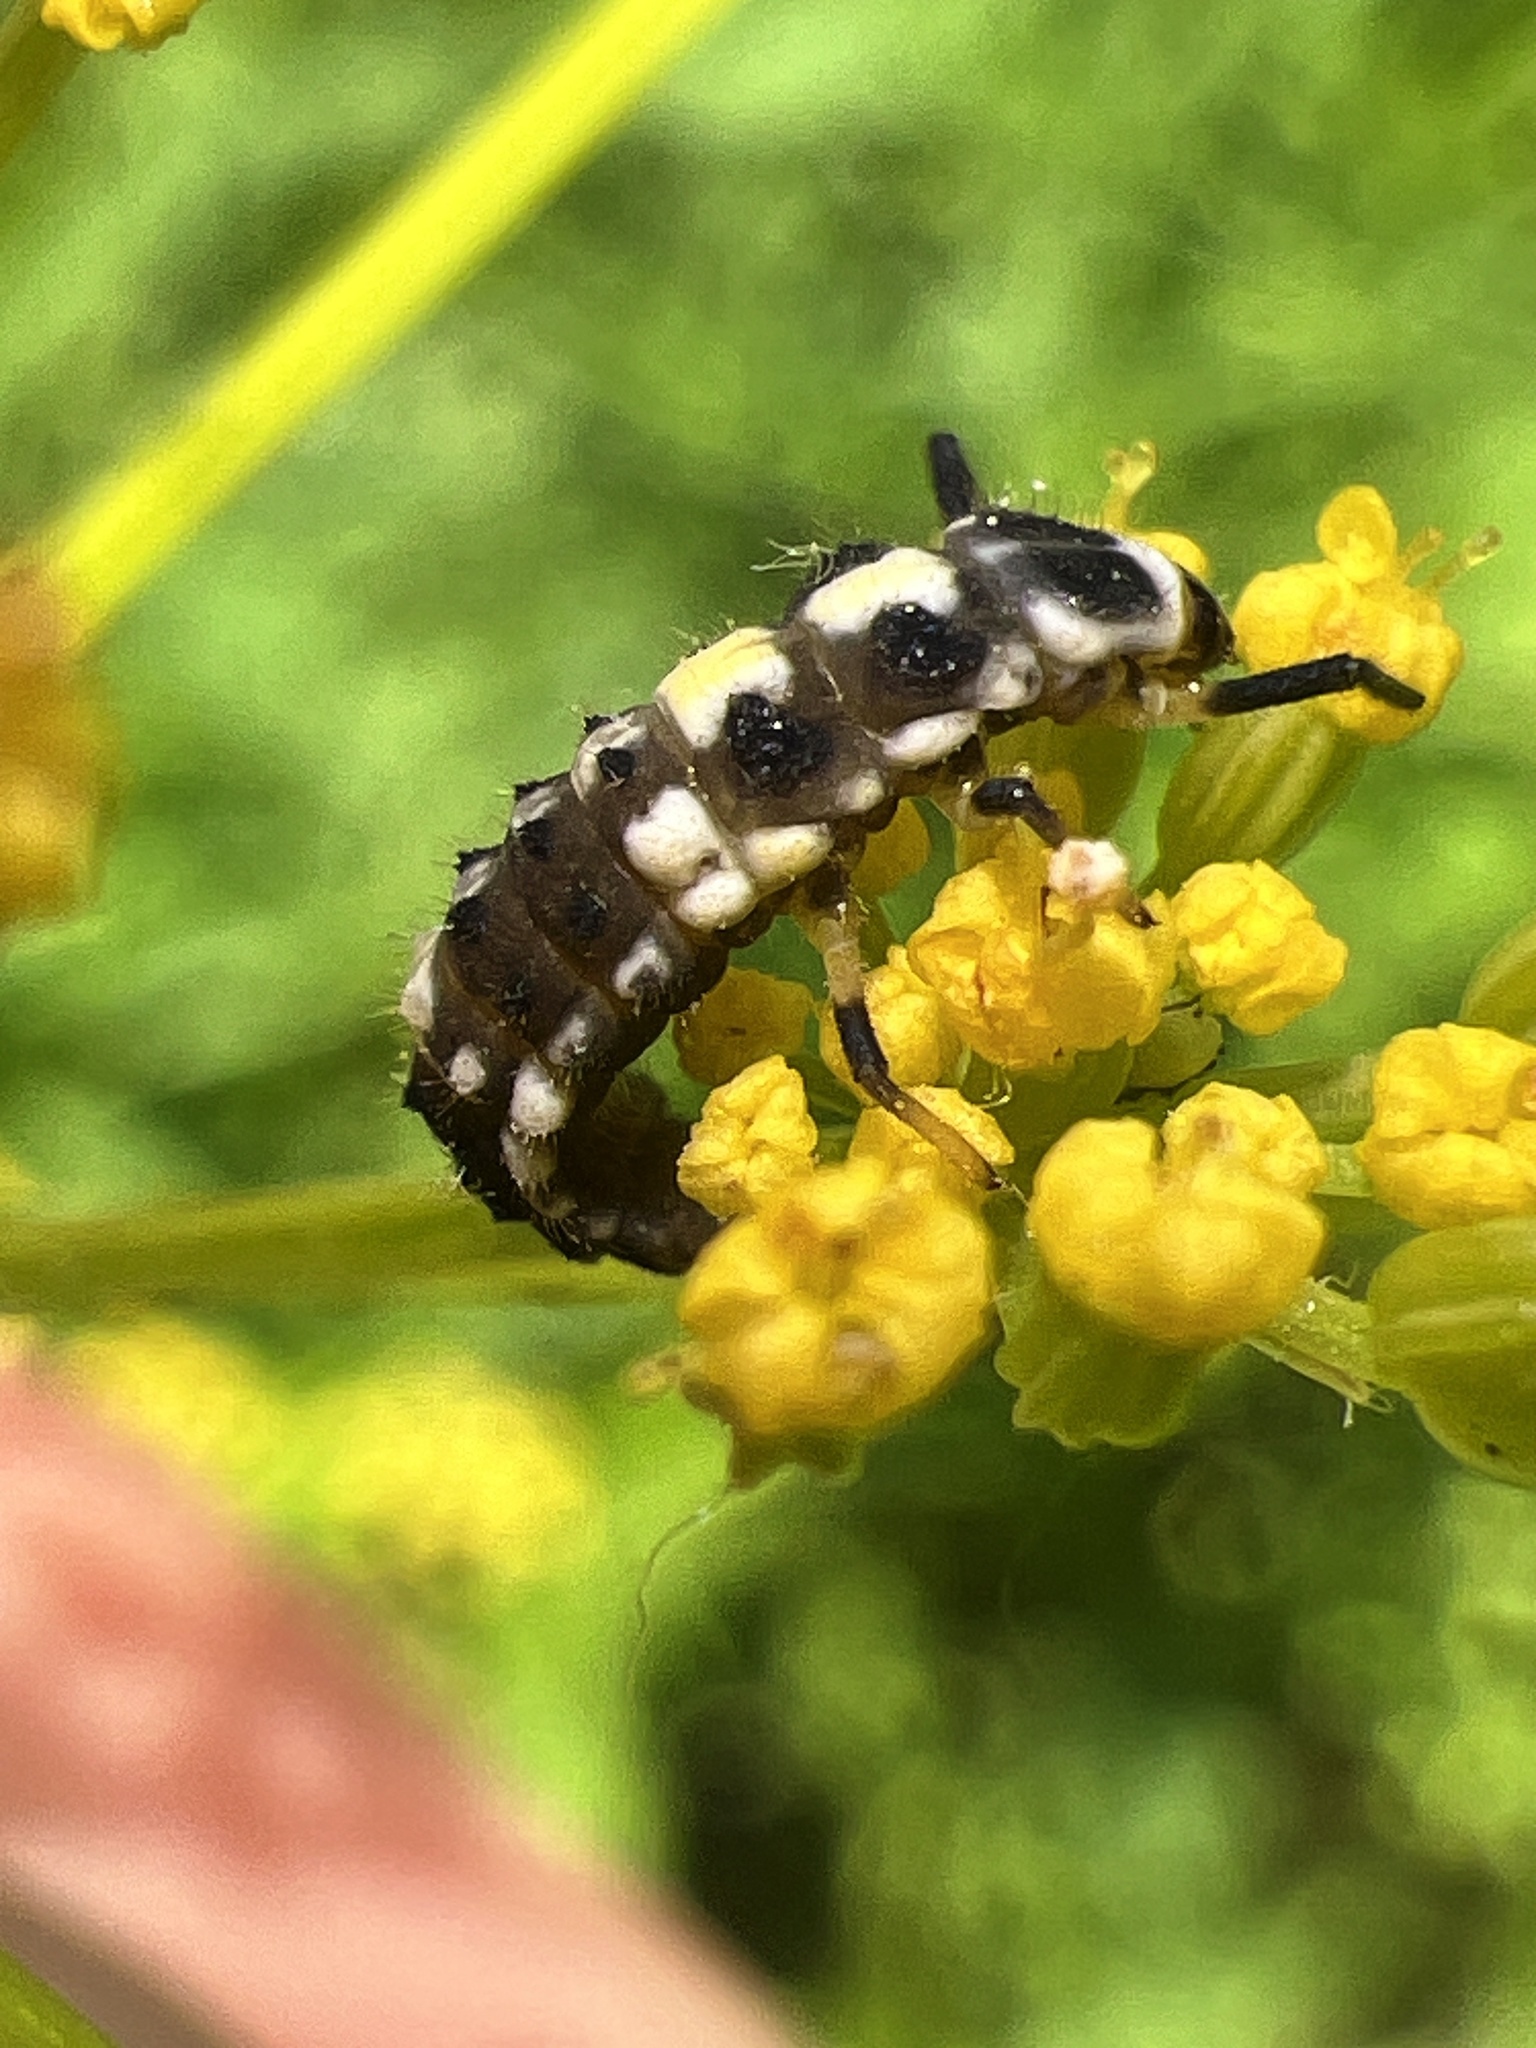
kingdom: Animalia
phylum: Arthropoda
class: Insecta
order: Coleoptera
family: Coccinellidae
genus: Propylaea
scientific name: Propylaea quatuordecimpunctata
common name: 14-spotted ladybird beetle
